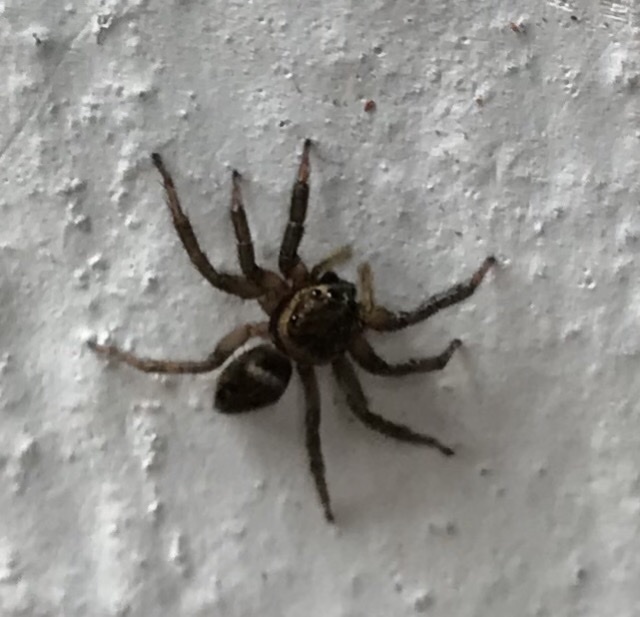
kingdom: Animalia
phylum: Arthropoda
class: Arachnida
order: Araneae
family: Salticidae
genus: Hasarius
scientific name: Hasarius adansoni
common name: Jumping spider
